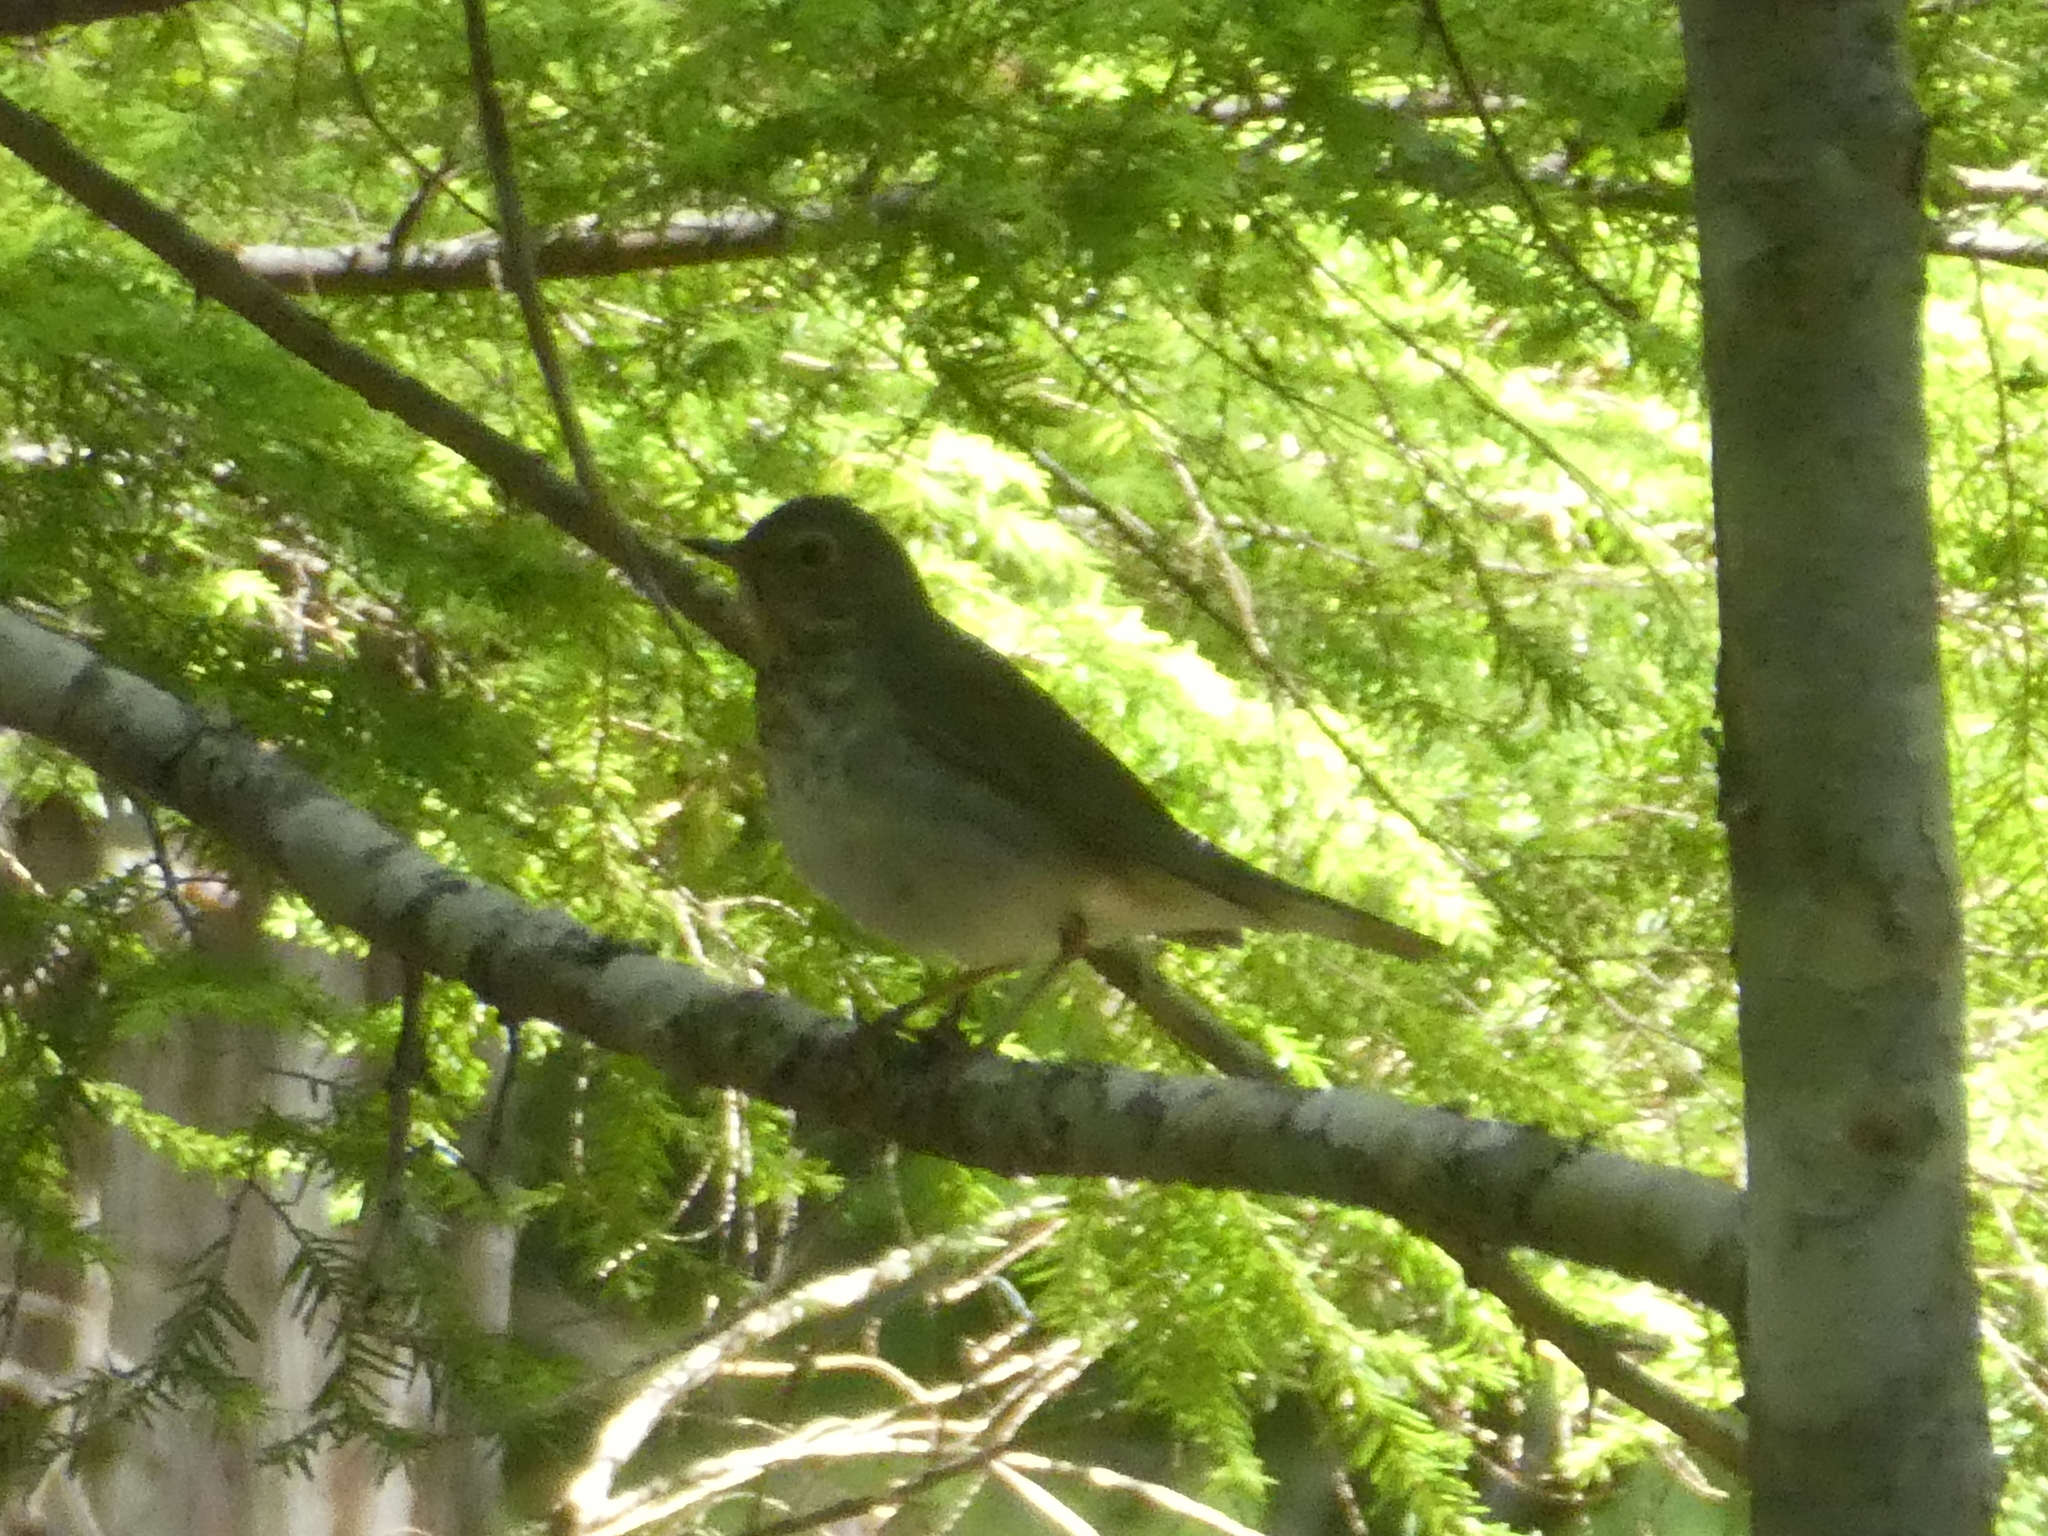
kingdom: Animalia
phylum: Chordata
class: Aves
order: Passeriformes
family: Turdidae
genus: Catharus
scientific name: Catharus ustulatus
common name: Swainson's thrush
